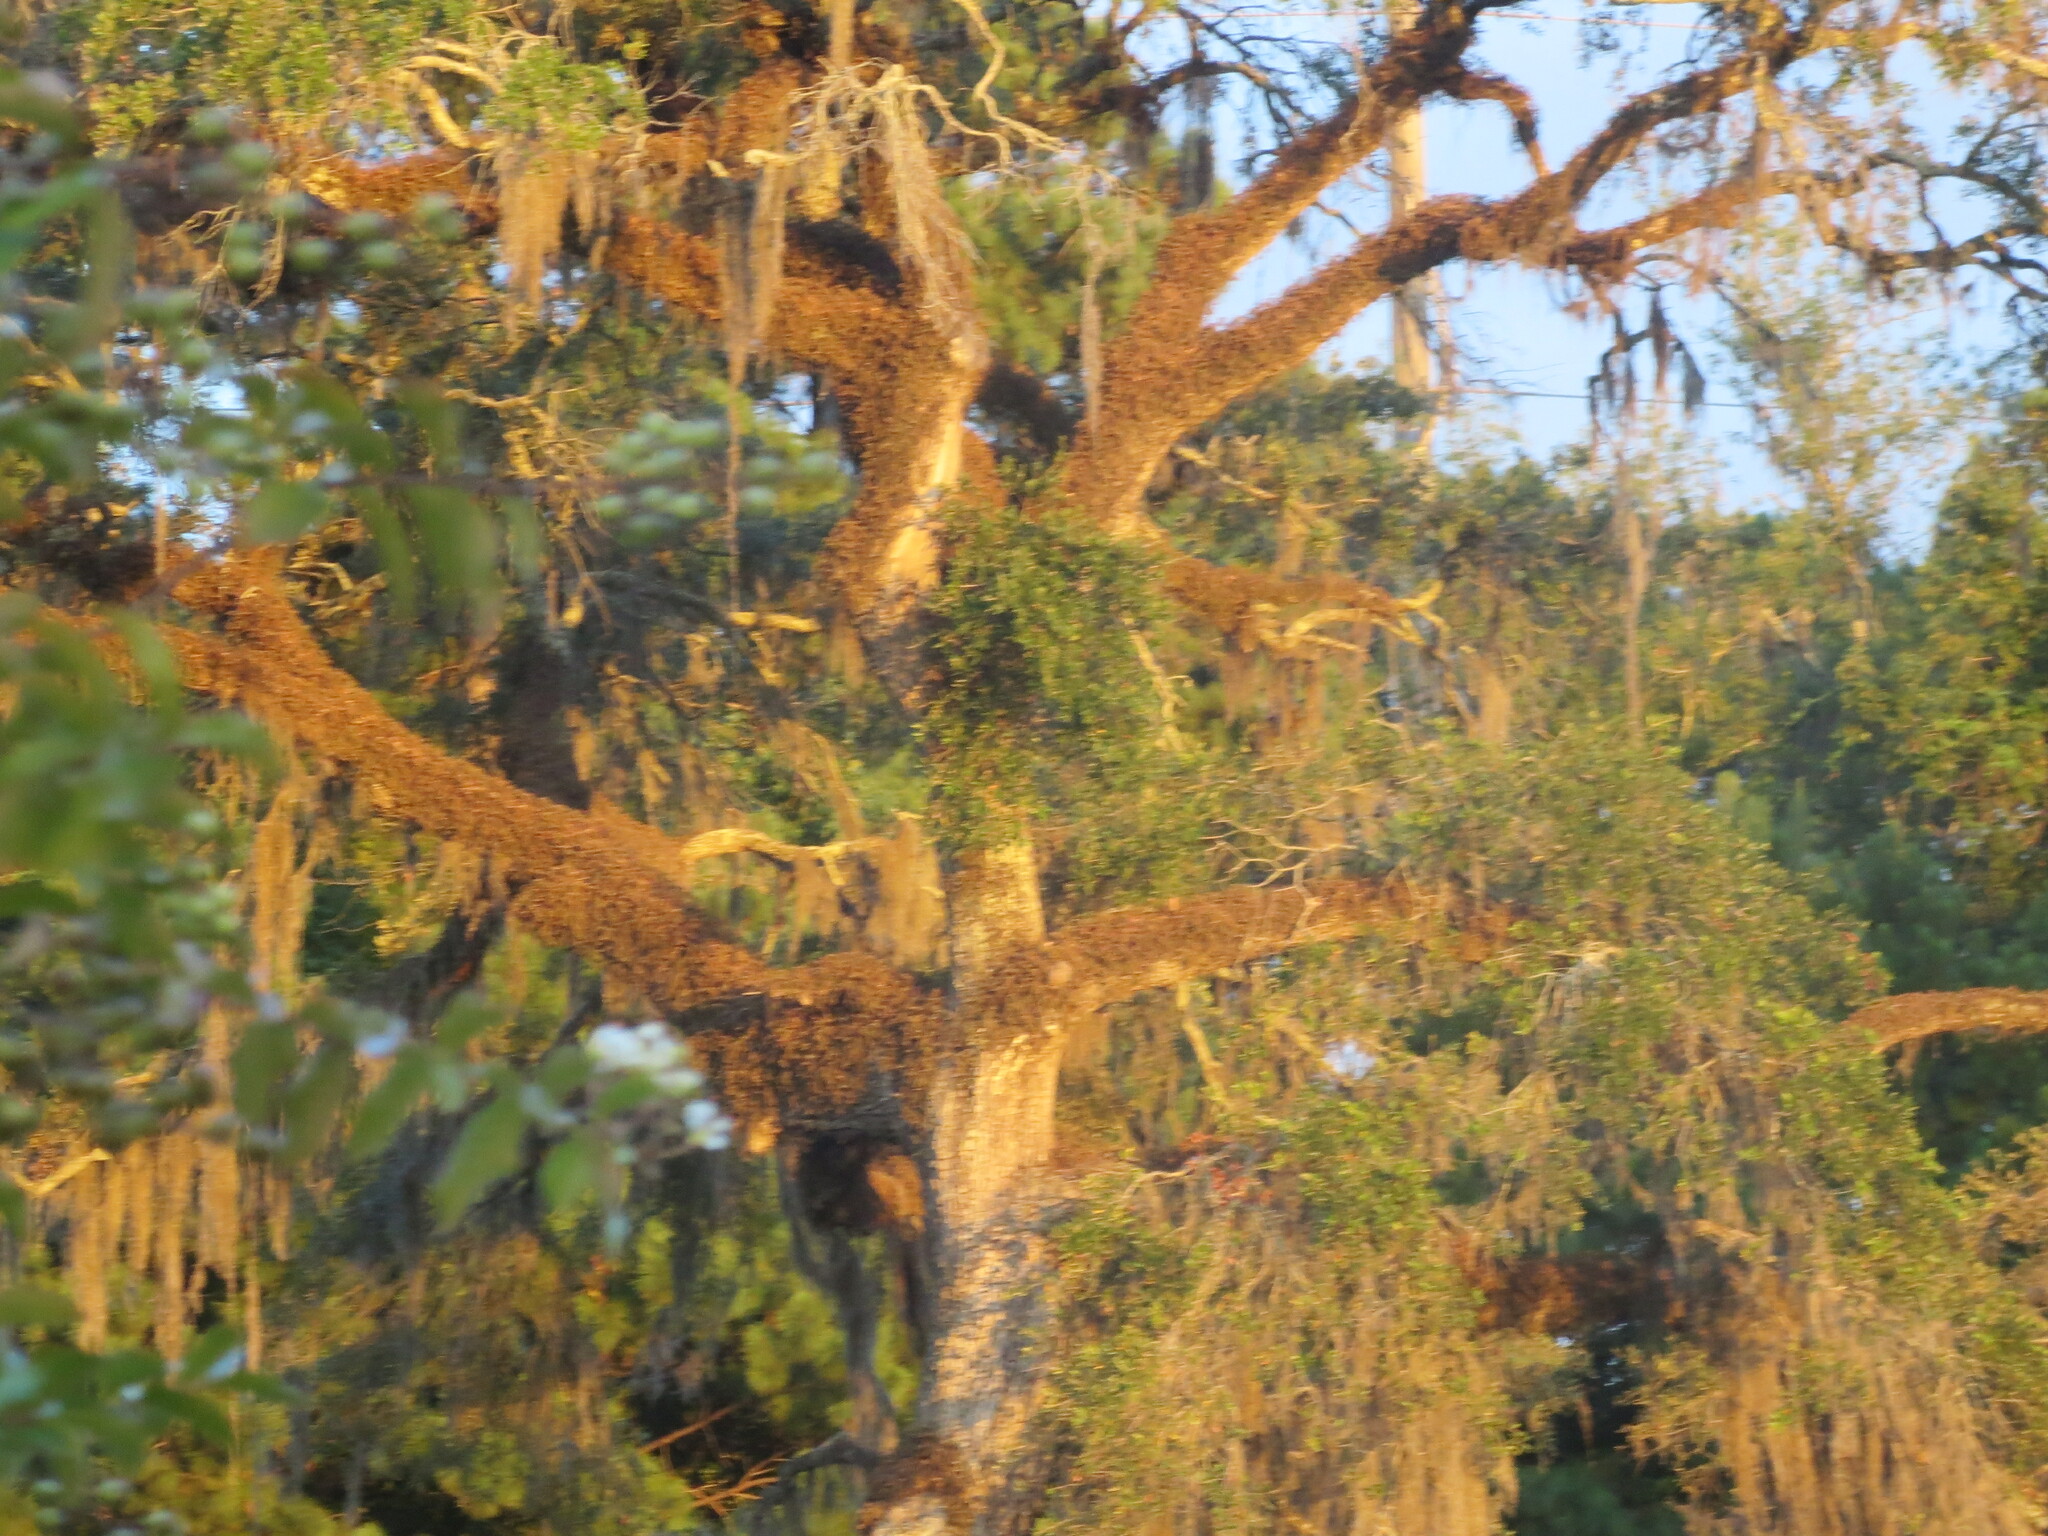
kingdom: Plantae
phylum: Tracheophyta
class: Magnoliopsida
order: Fagales
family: Fagaceae
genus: Quercus
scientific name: Quercus virginiana
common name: Southern live oak
